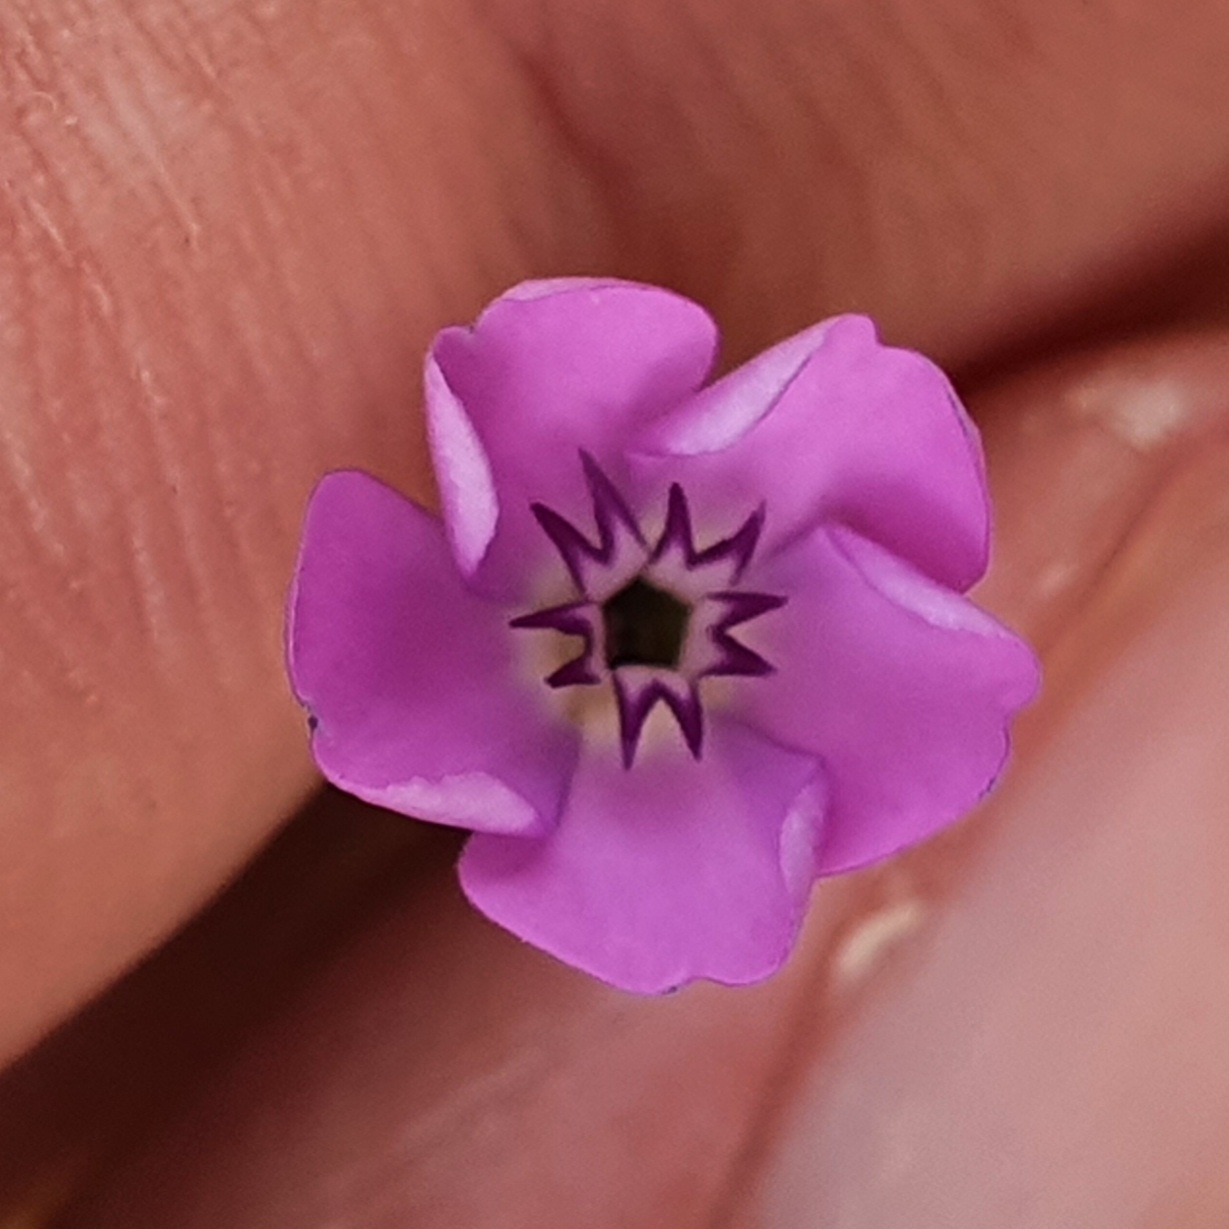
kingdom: Plantae
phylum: Tracheophyta
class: Magnoliopsida
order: Caryophyllales
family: Caryophyllaceae
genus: Eudianthe
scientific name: Eudianthe coeli-rosa
